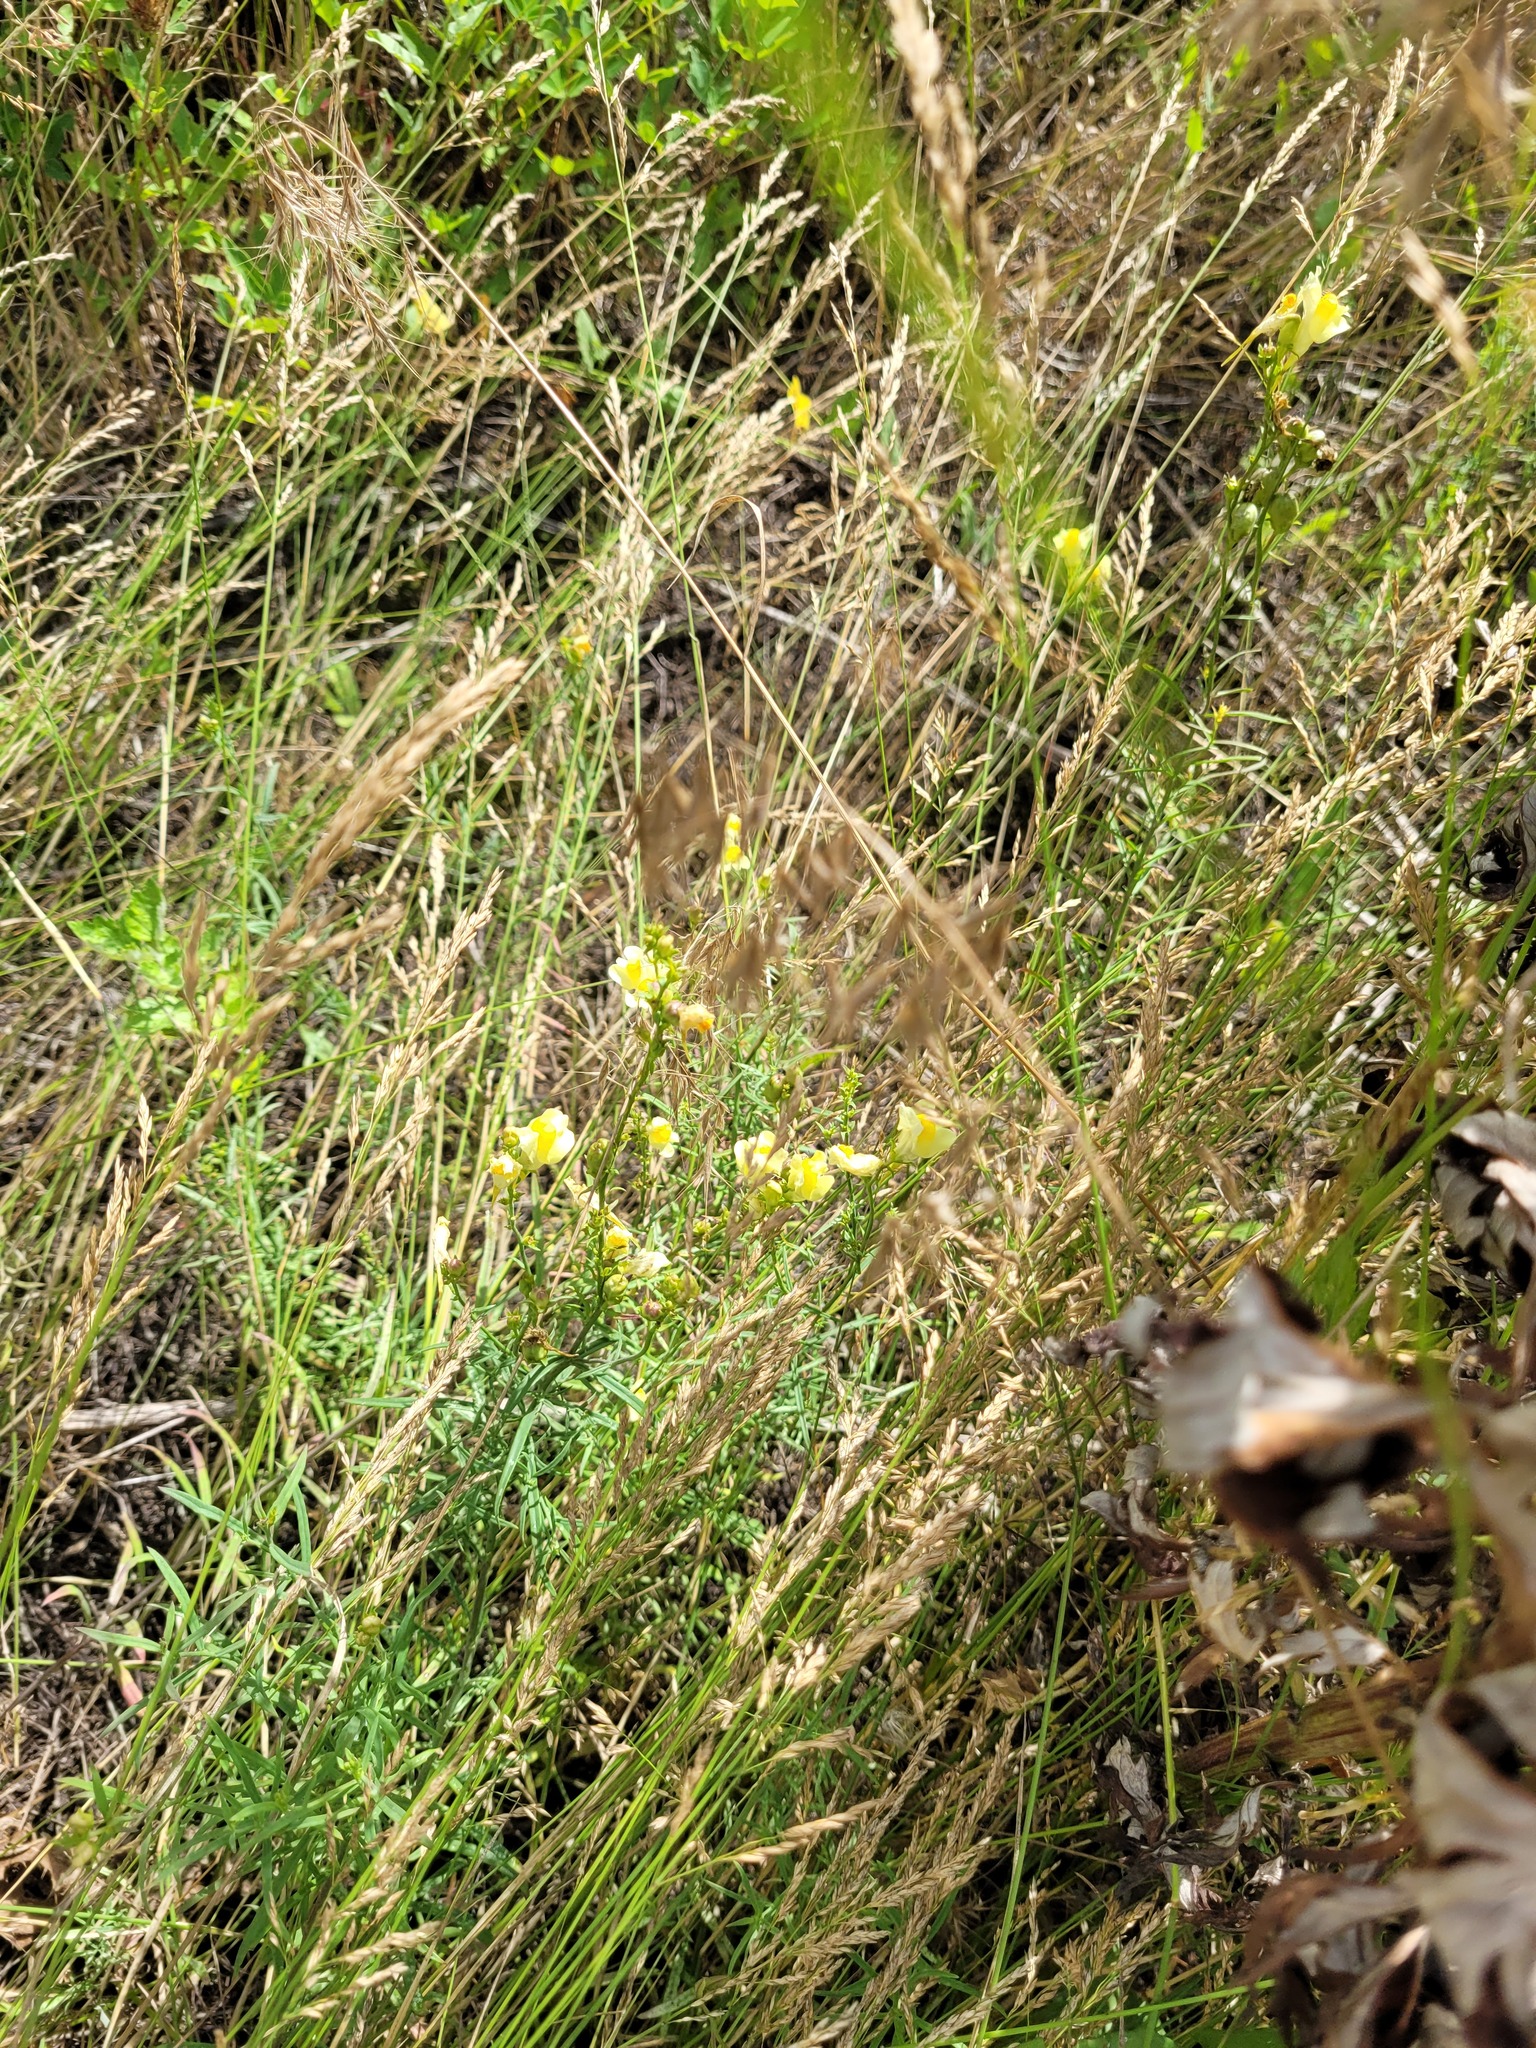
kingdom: Plantae
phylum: Tracheophyta
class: Magnoliopsida
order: Lamiales
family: Plantaginaceae
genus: Linaria
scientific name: Linaria vulgaris
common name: Butter and eggs
